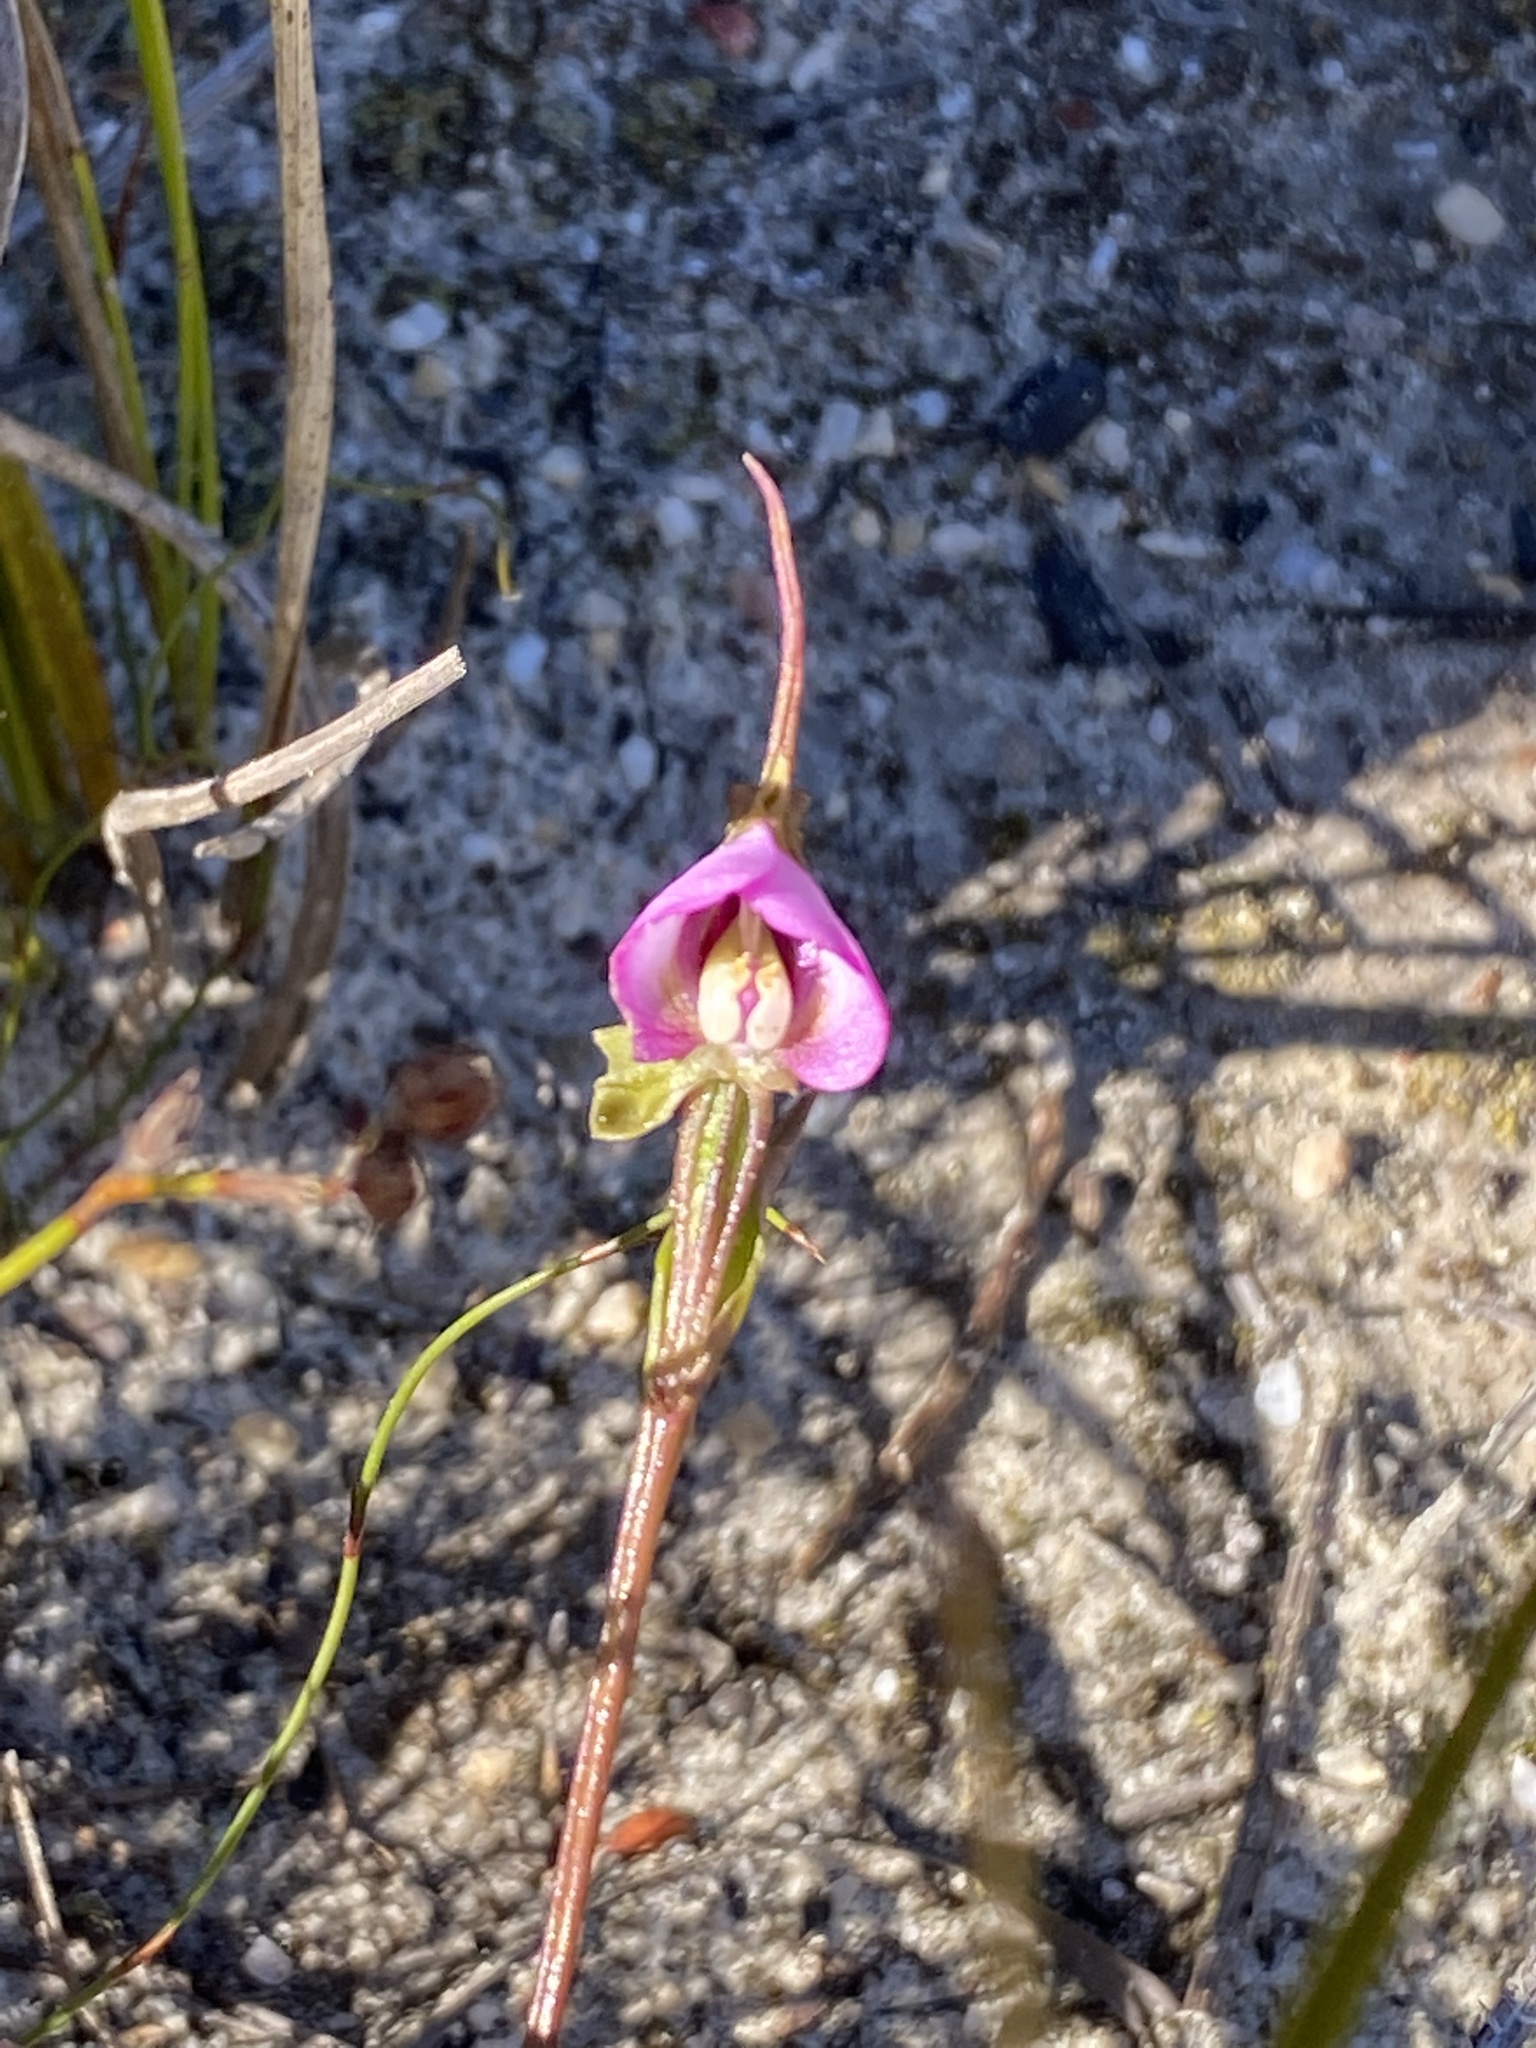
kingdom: Plantae
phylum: Tracheophyta
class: Liliopsida
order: Asparagales
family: Orchidaceae
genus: Disperis
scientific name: Disperis capensis
